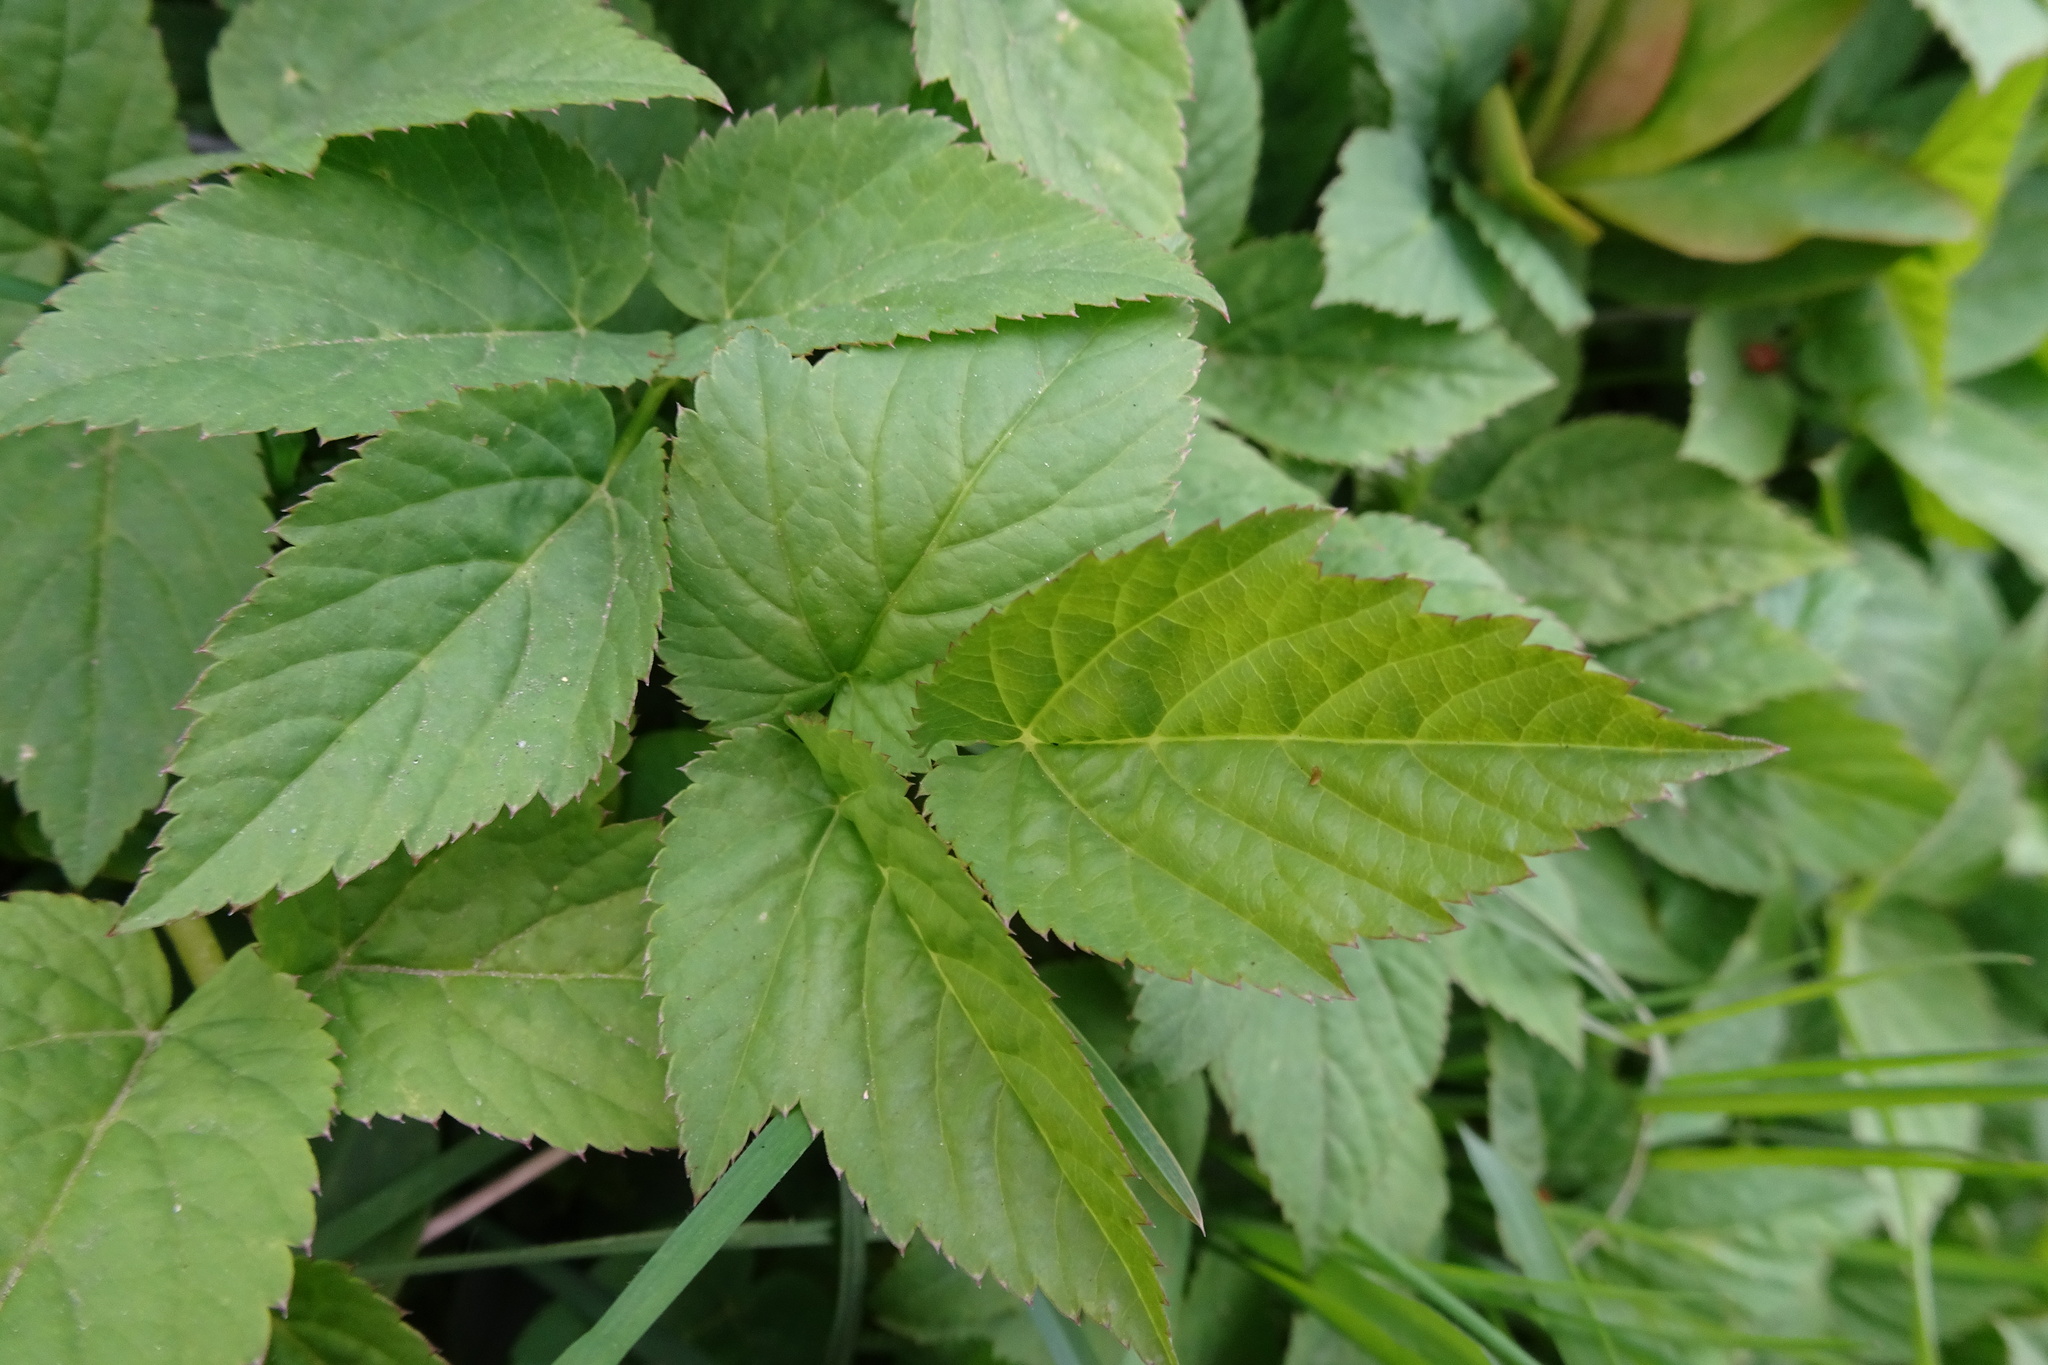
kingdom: Plantae
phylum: Tracheophyta
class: Magnoliopsida
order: Apiales
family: Apiaceae
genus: Aegopodium
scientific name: Aegopodium podagraria
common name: Ground-elder
